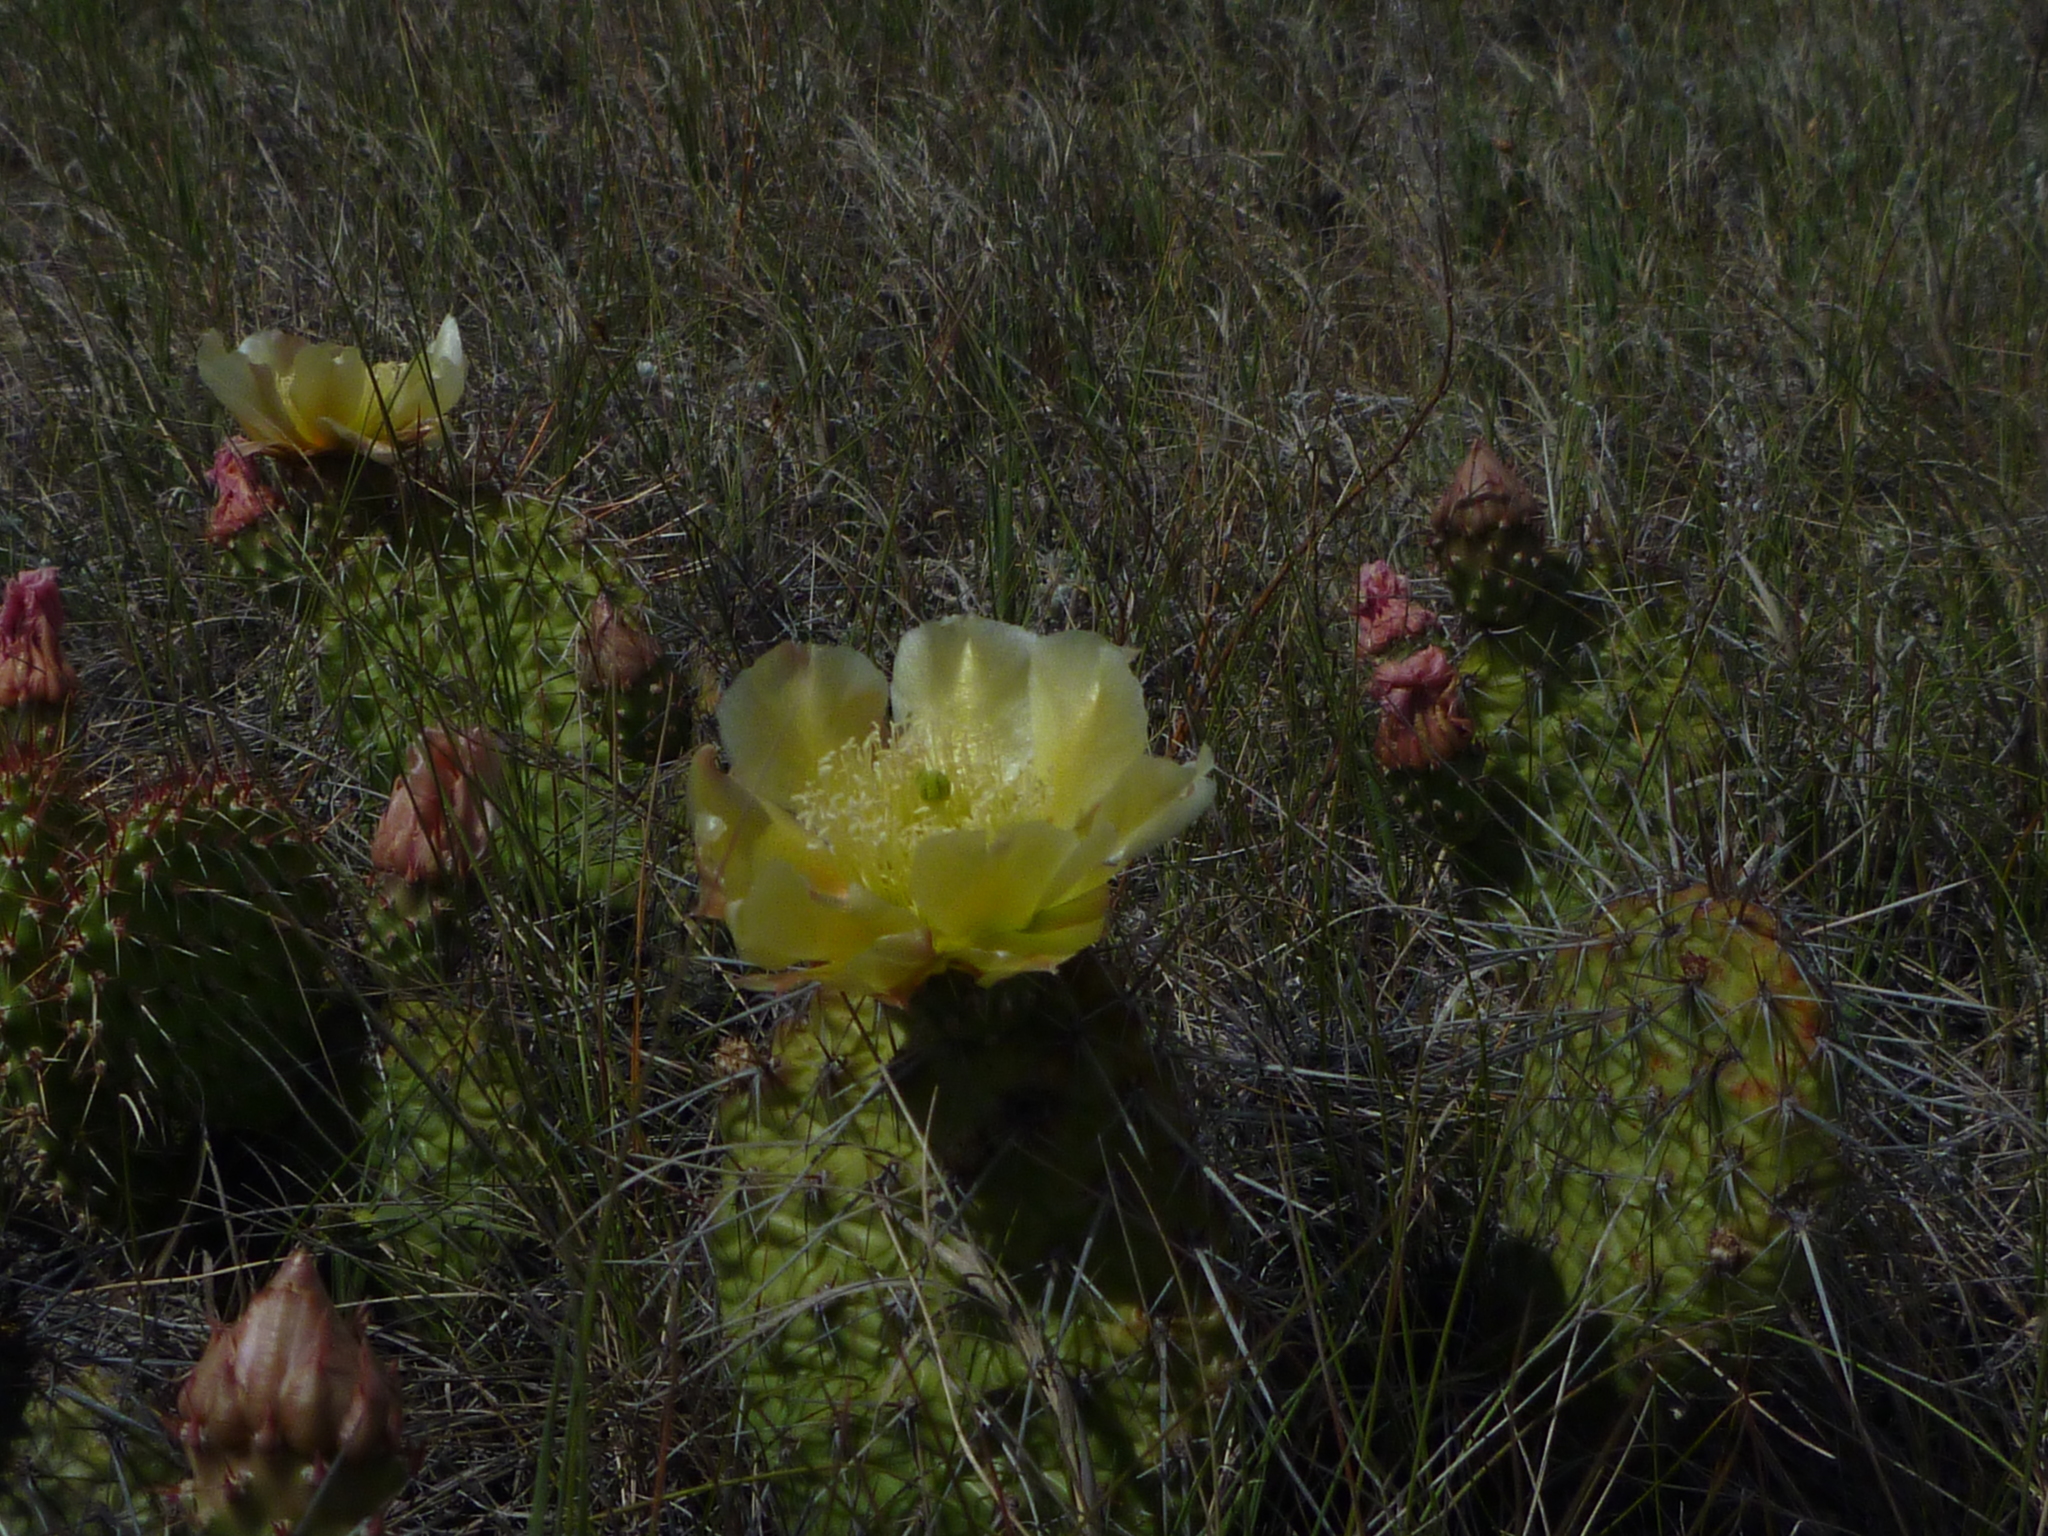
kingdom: Plantae
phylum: Tracheophyta
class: Magnoliopsida
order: Caryophyllales
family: Cactaceae
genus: Opuntia
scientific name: Opuntia polyacantha
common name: Plains prickly-pear
